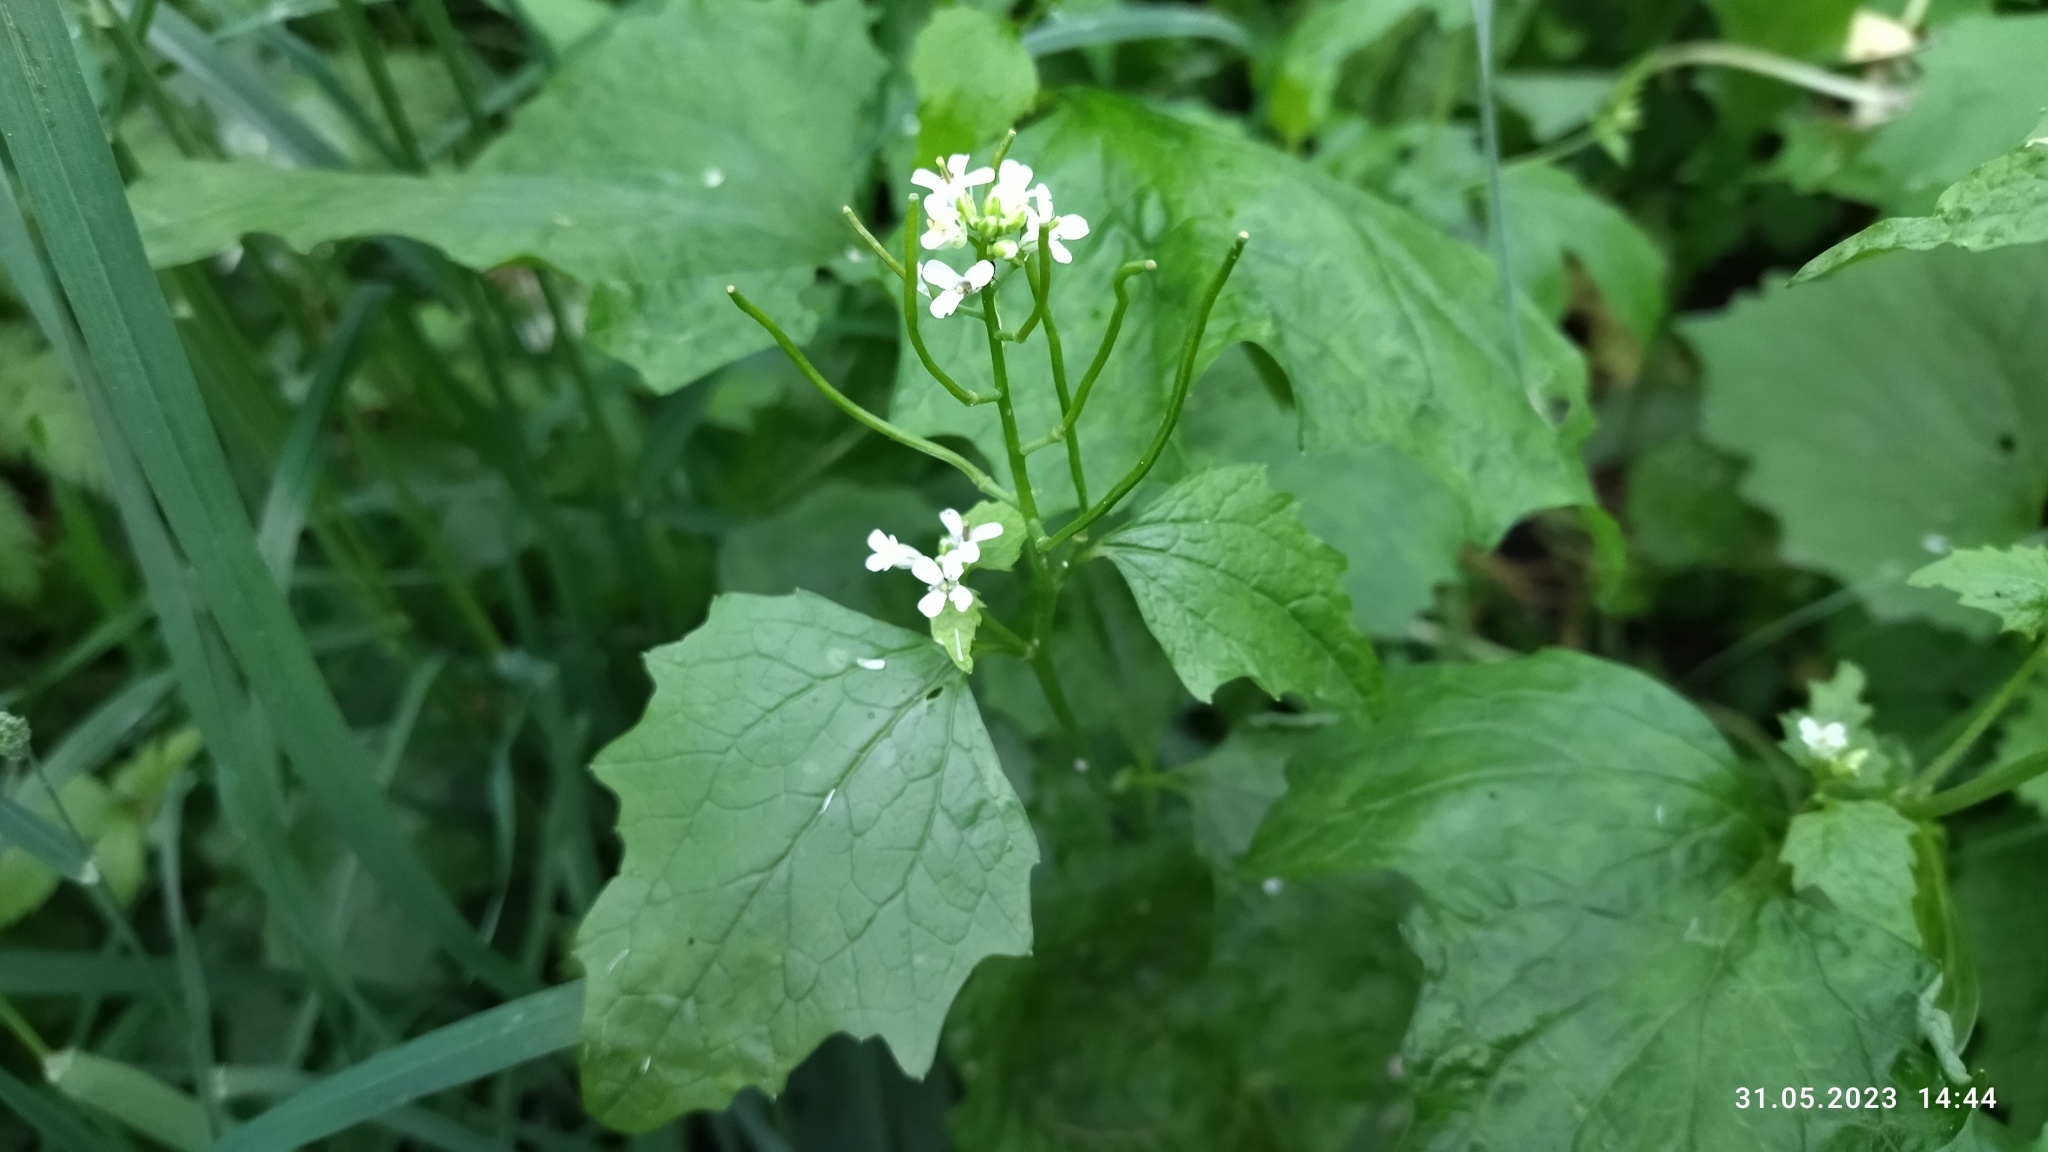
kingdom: Plantae
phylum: Tracheophyta
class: Magnoliopsida
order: Brassicales
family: Brassicaceae
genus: Alliaria
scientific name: Alliaria petiolata
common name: Garlic mustard
